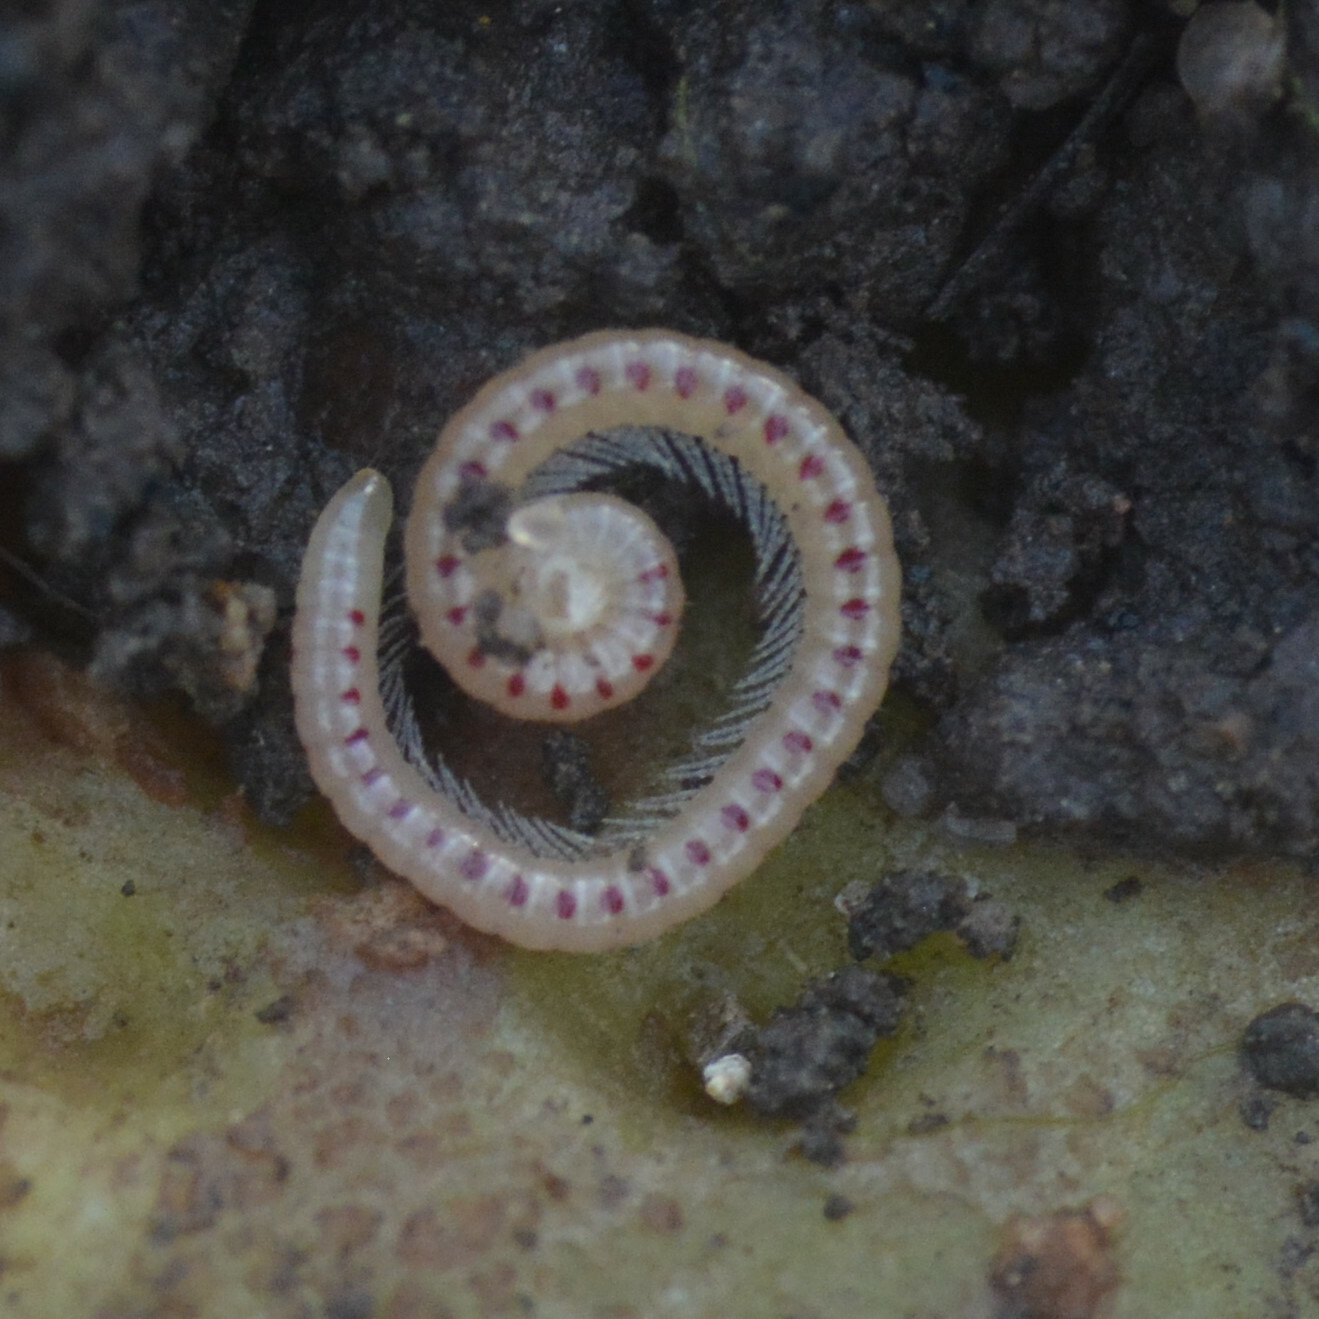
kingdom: Animalia
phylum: Arthropoda
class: Diplopoda
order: Julida
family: Blaniulidae
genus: Blaniulus
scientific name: Blaniulus guttulatus
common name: Spotted snake millipede
